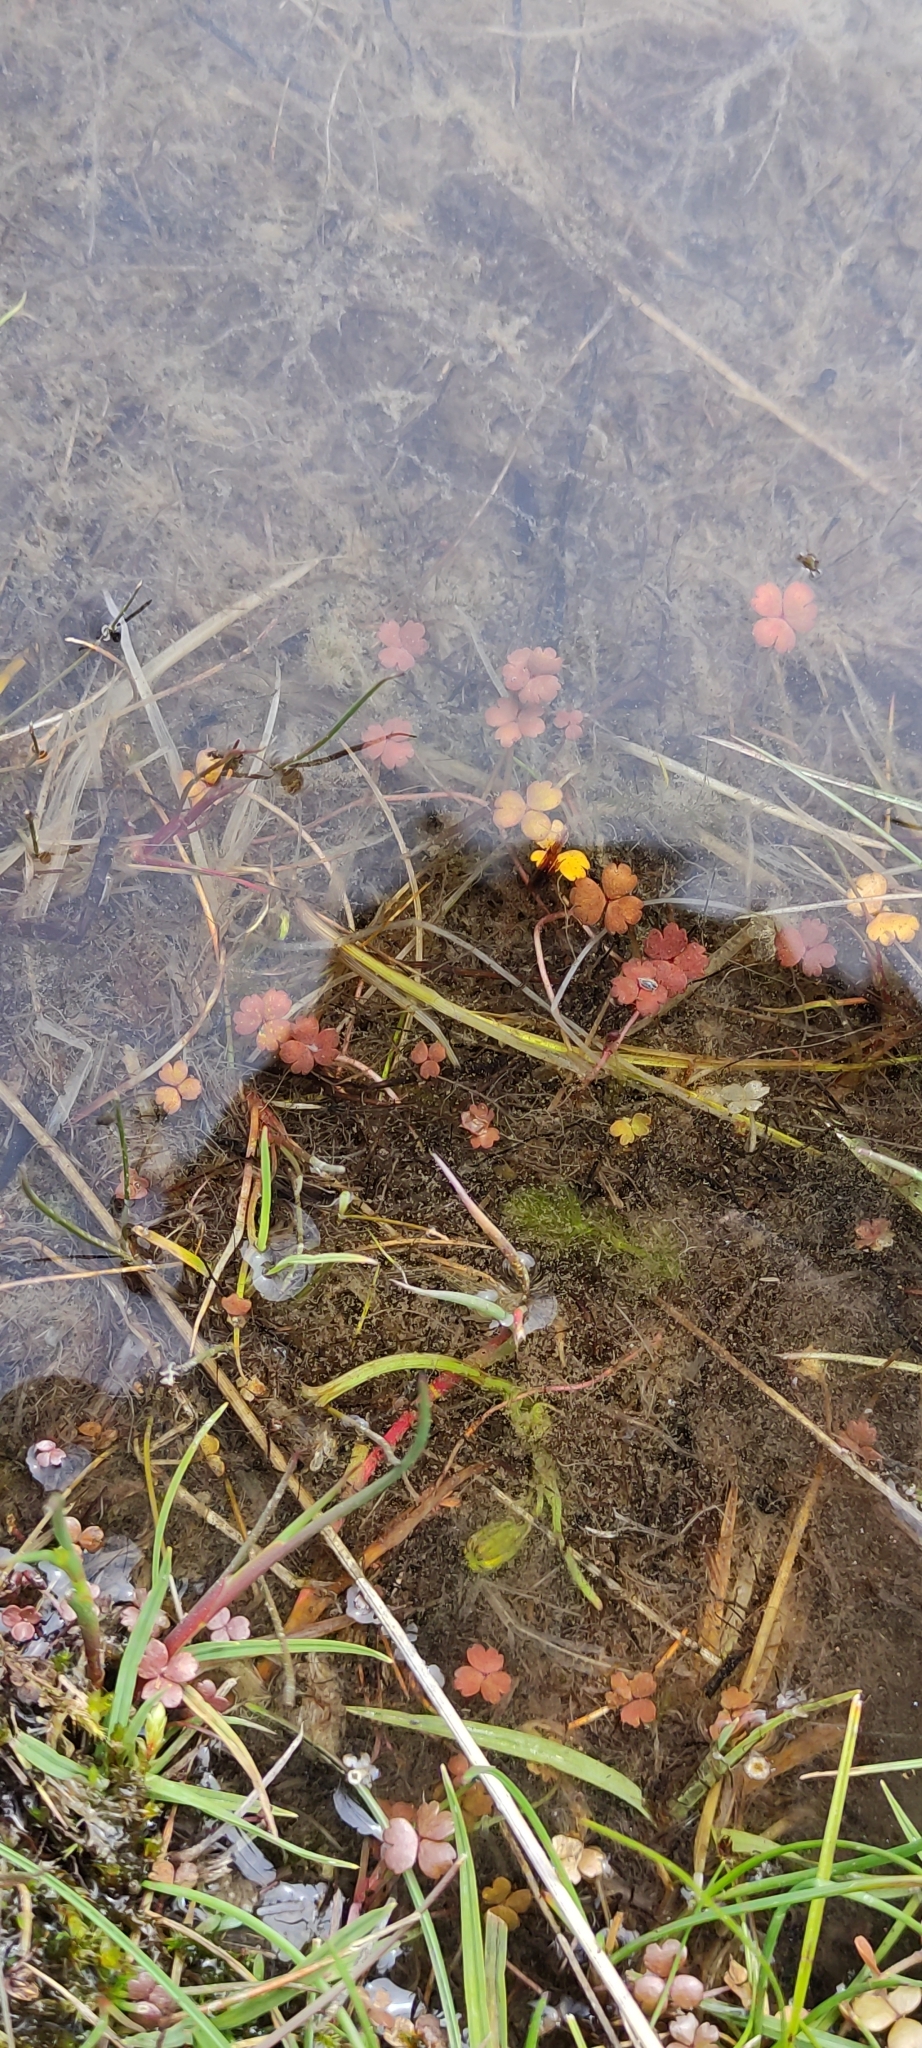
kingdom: Plantae
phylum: Tracheophyta
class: Magnoliopsida
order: Apiales
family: Araliaceae
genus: Hydrocotyle
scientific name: Hydrocotyle sulcata
